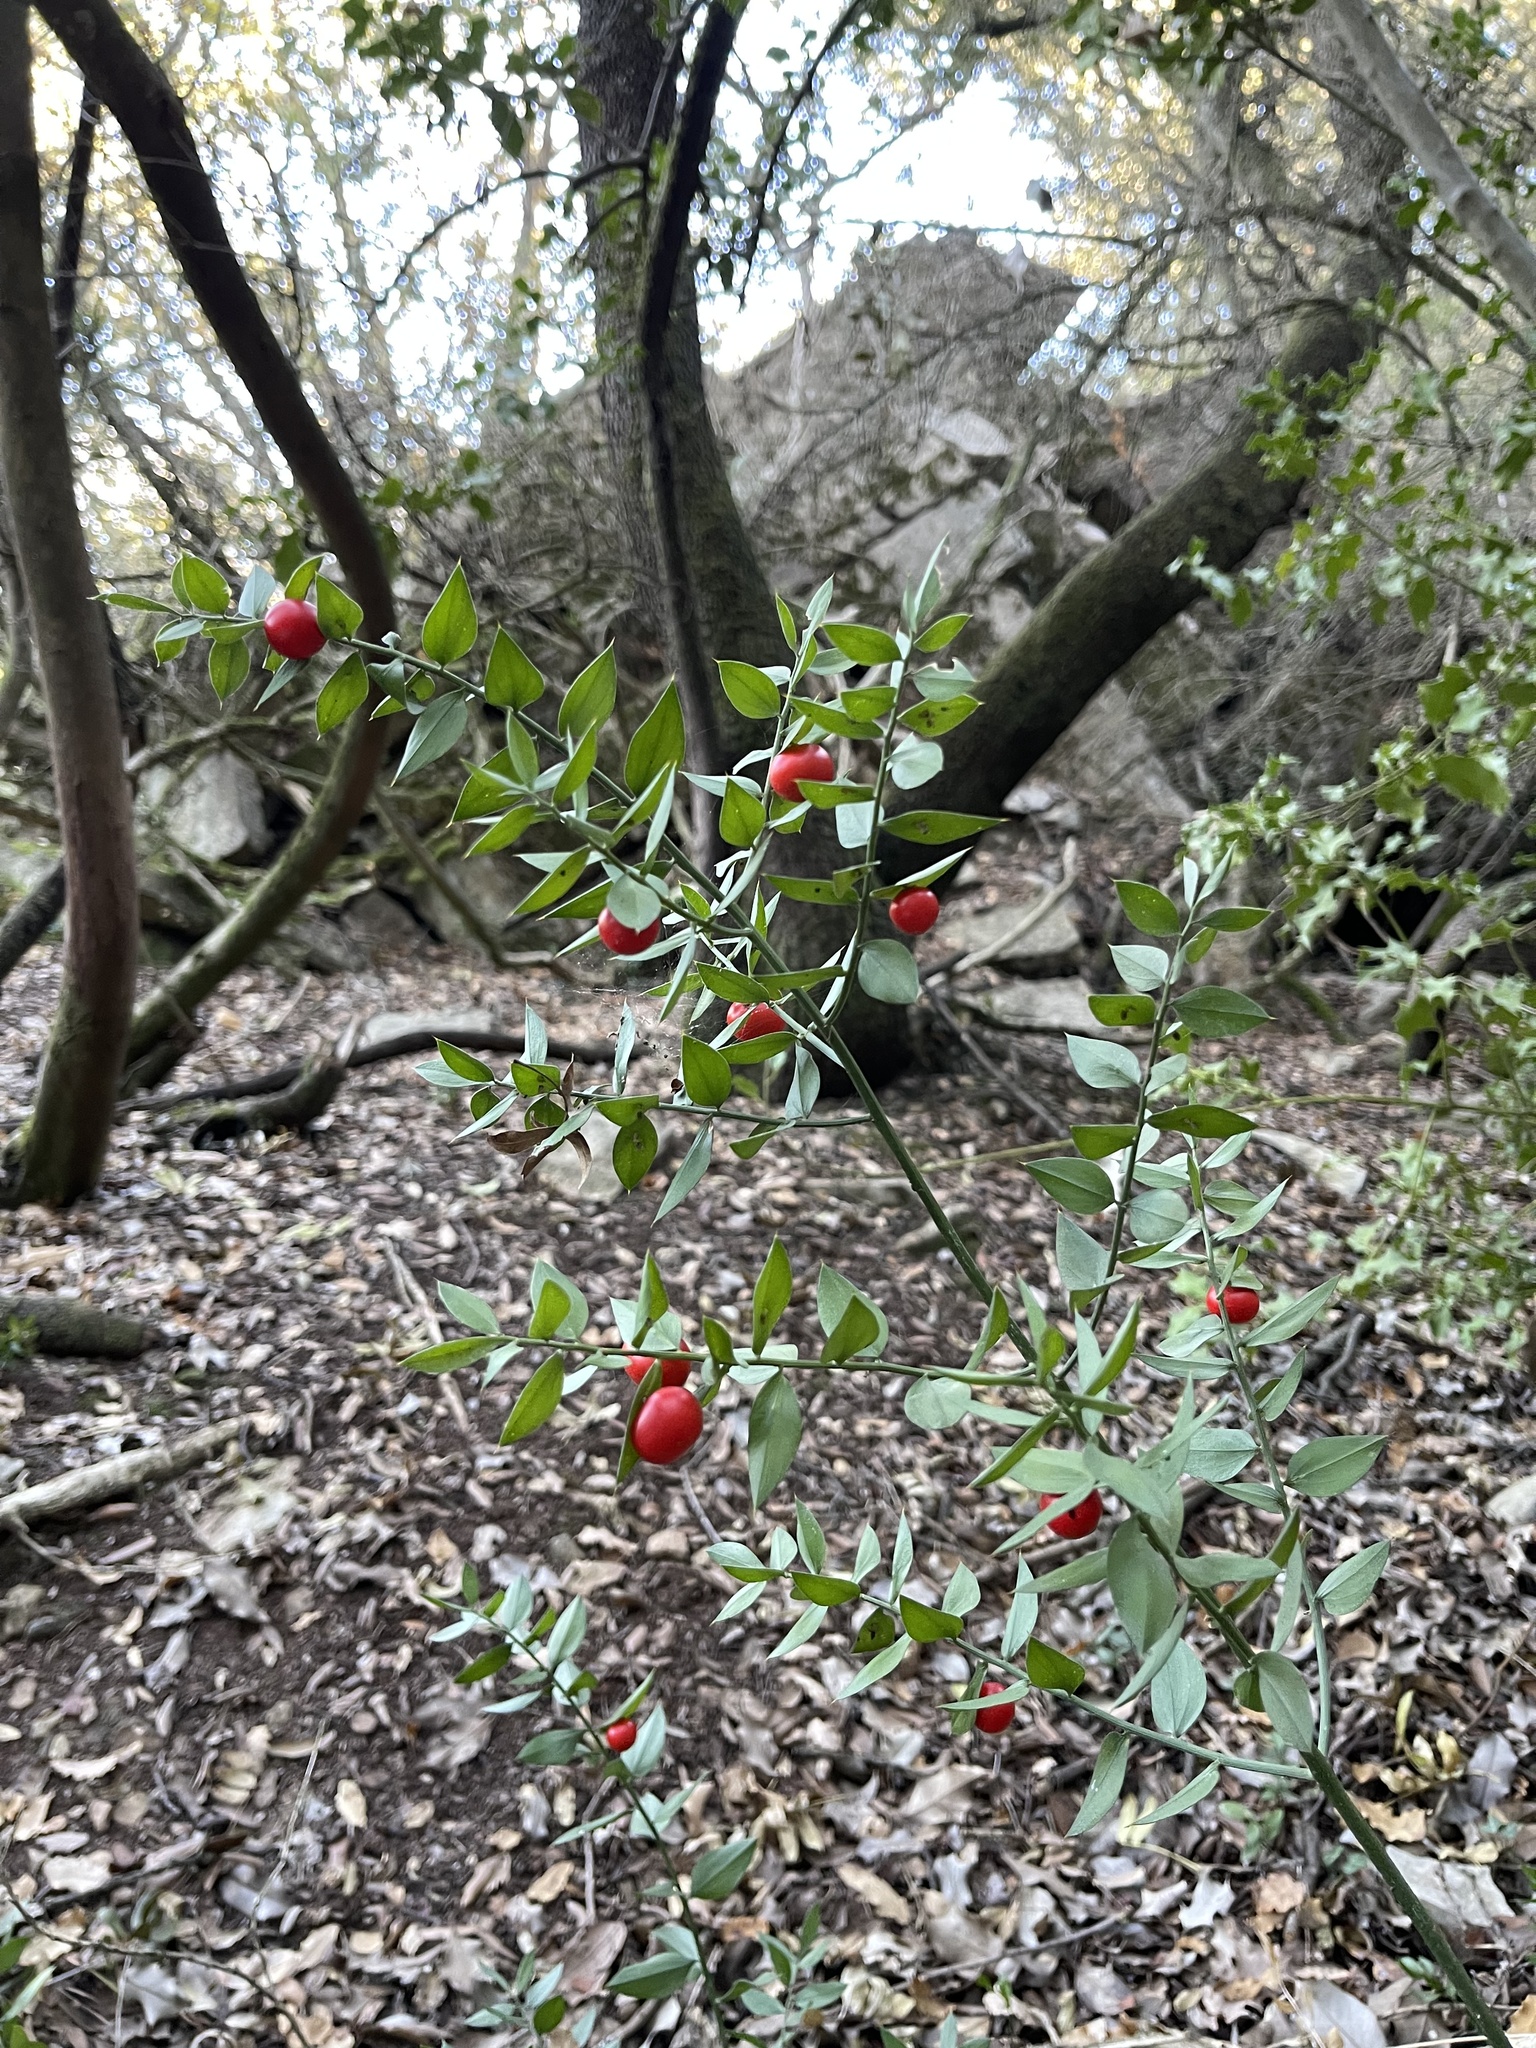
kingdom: Plantae
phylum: Tracheophyta
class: Liliopsida
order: Asparagales
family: Asparagaceae
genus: Ruscus
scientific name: Ruscus aculeatus
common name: Butcher's-broom
